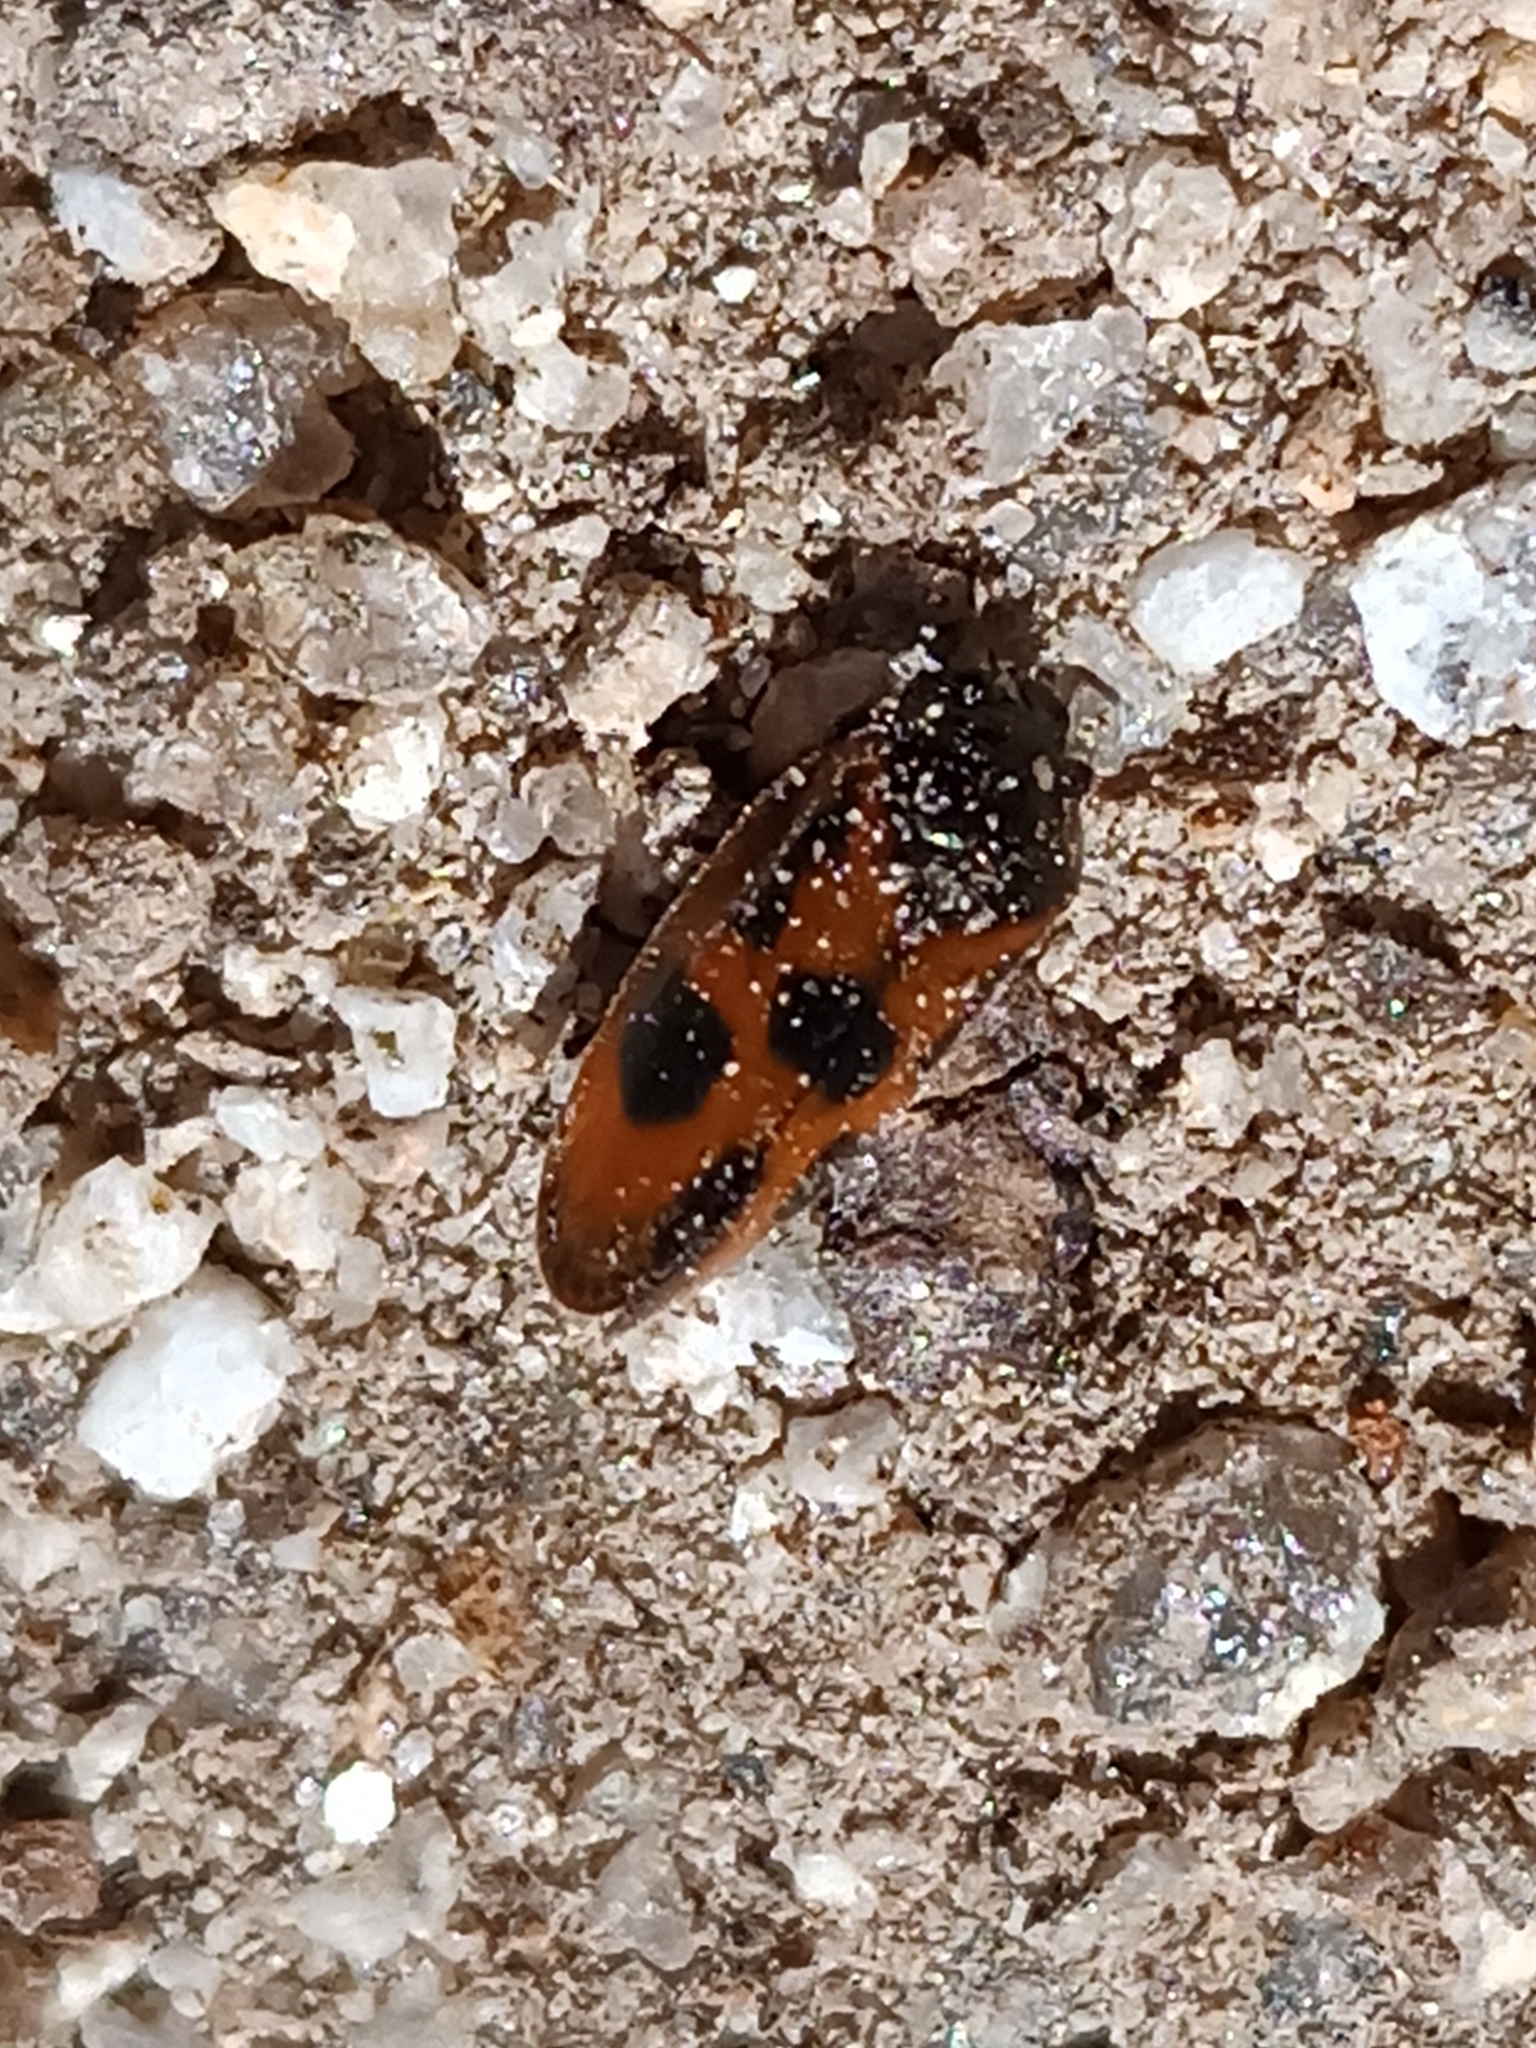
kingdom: Animalia
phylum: Arthropoda
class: Insecta
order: Hemiptera
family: Cercopidae
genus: Haematoloma
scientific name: Haematoloma dorsata
